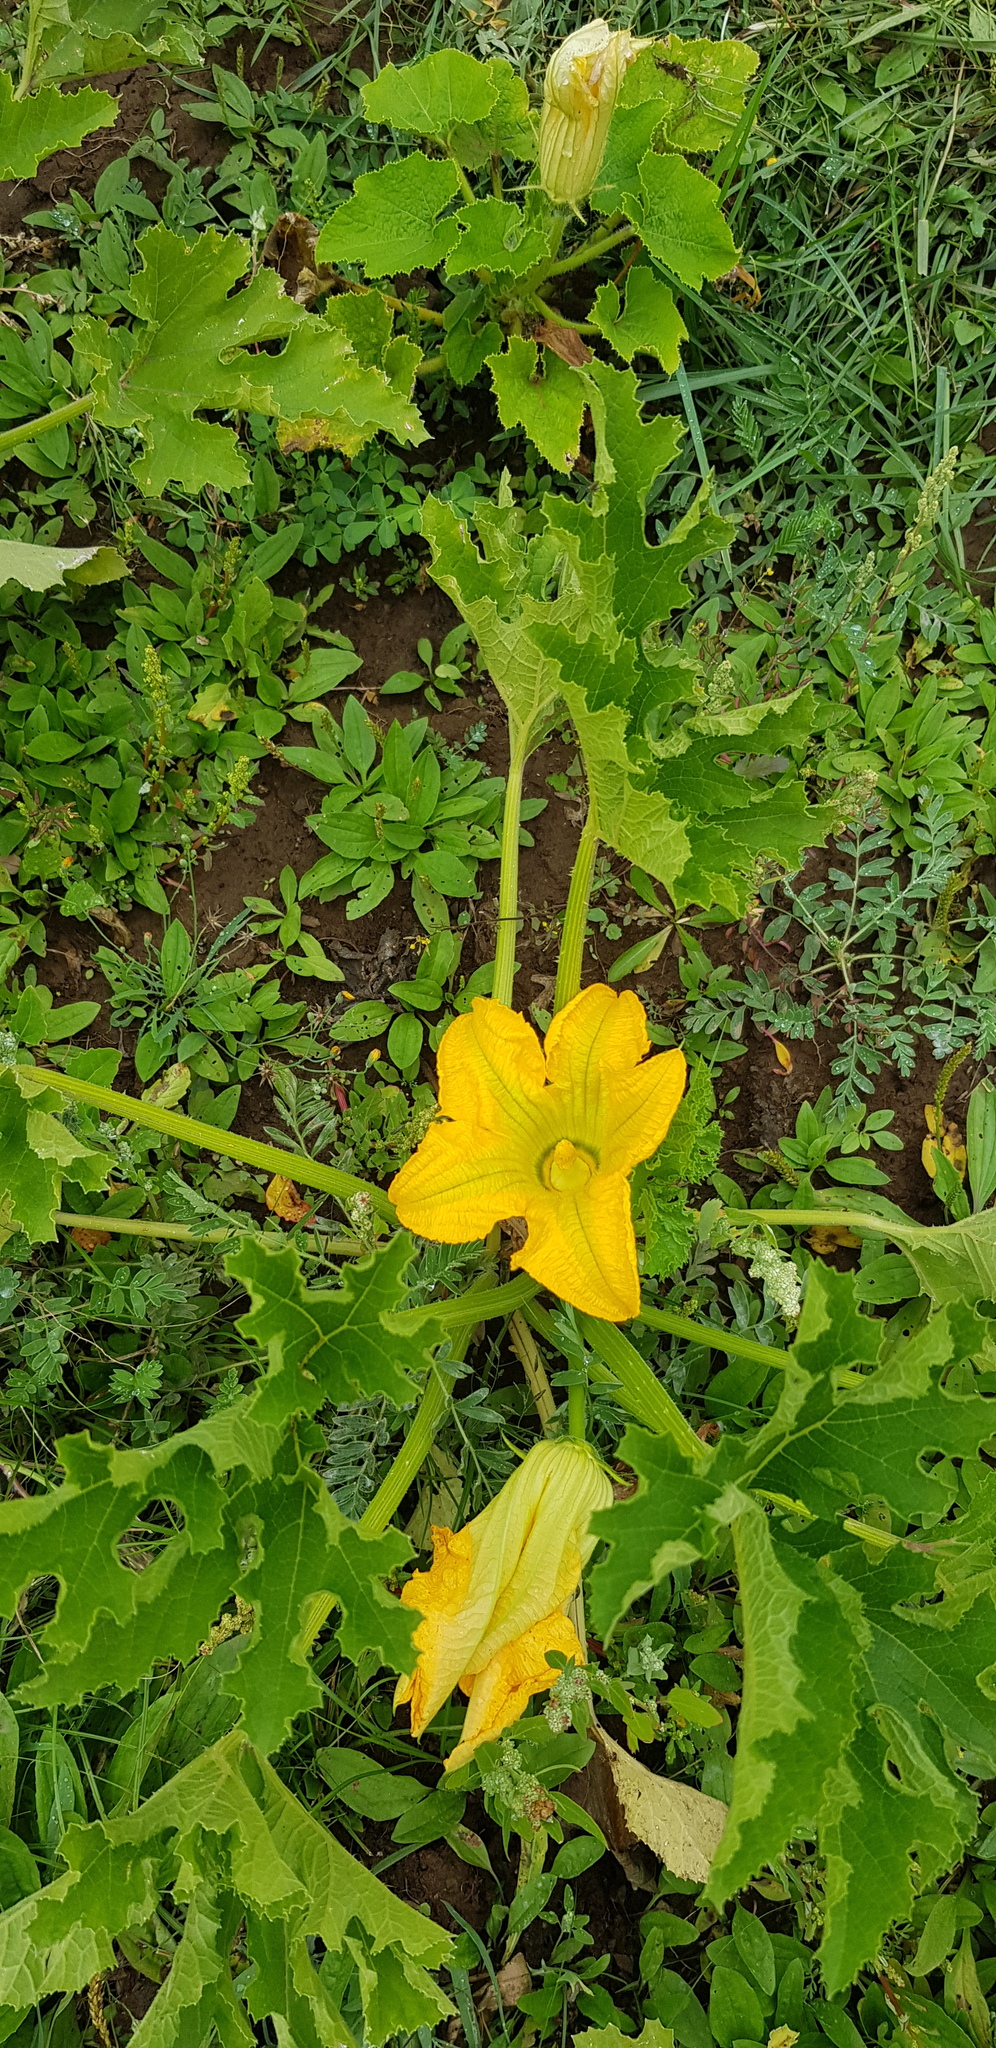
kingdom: Plantae
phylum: Tracheophyta
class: Magnoliopsida
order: Cucurbitales
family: Cucurbitaceae
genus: Cucurbita
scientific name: Cucurbita moschata
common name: Squash / pumpkin
